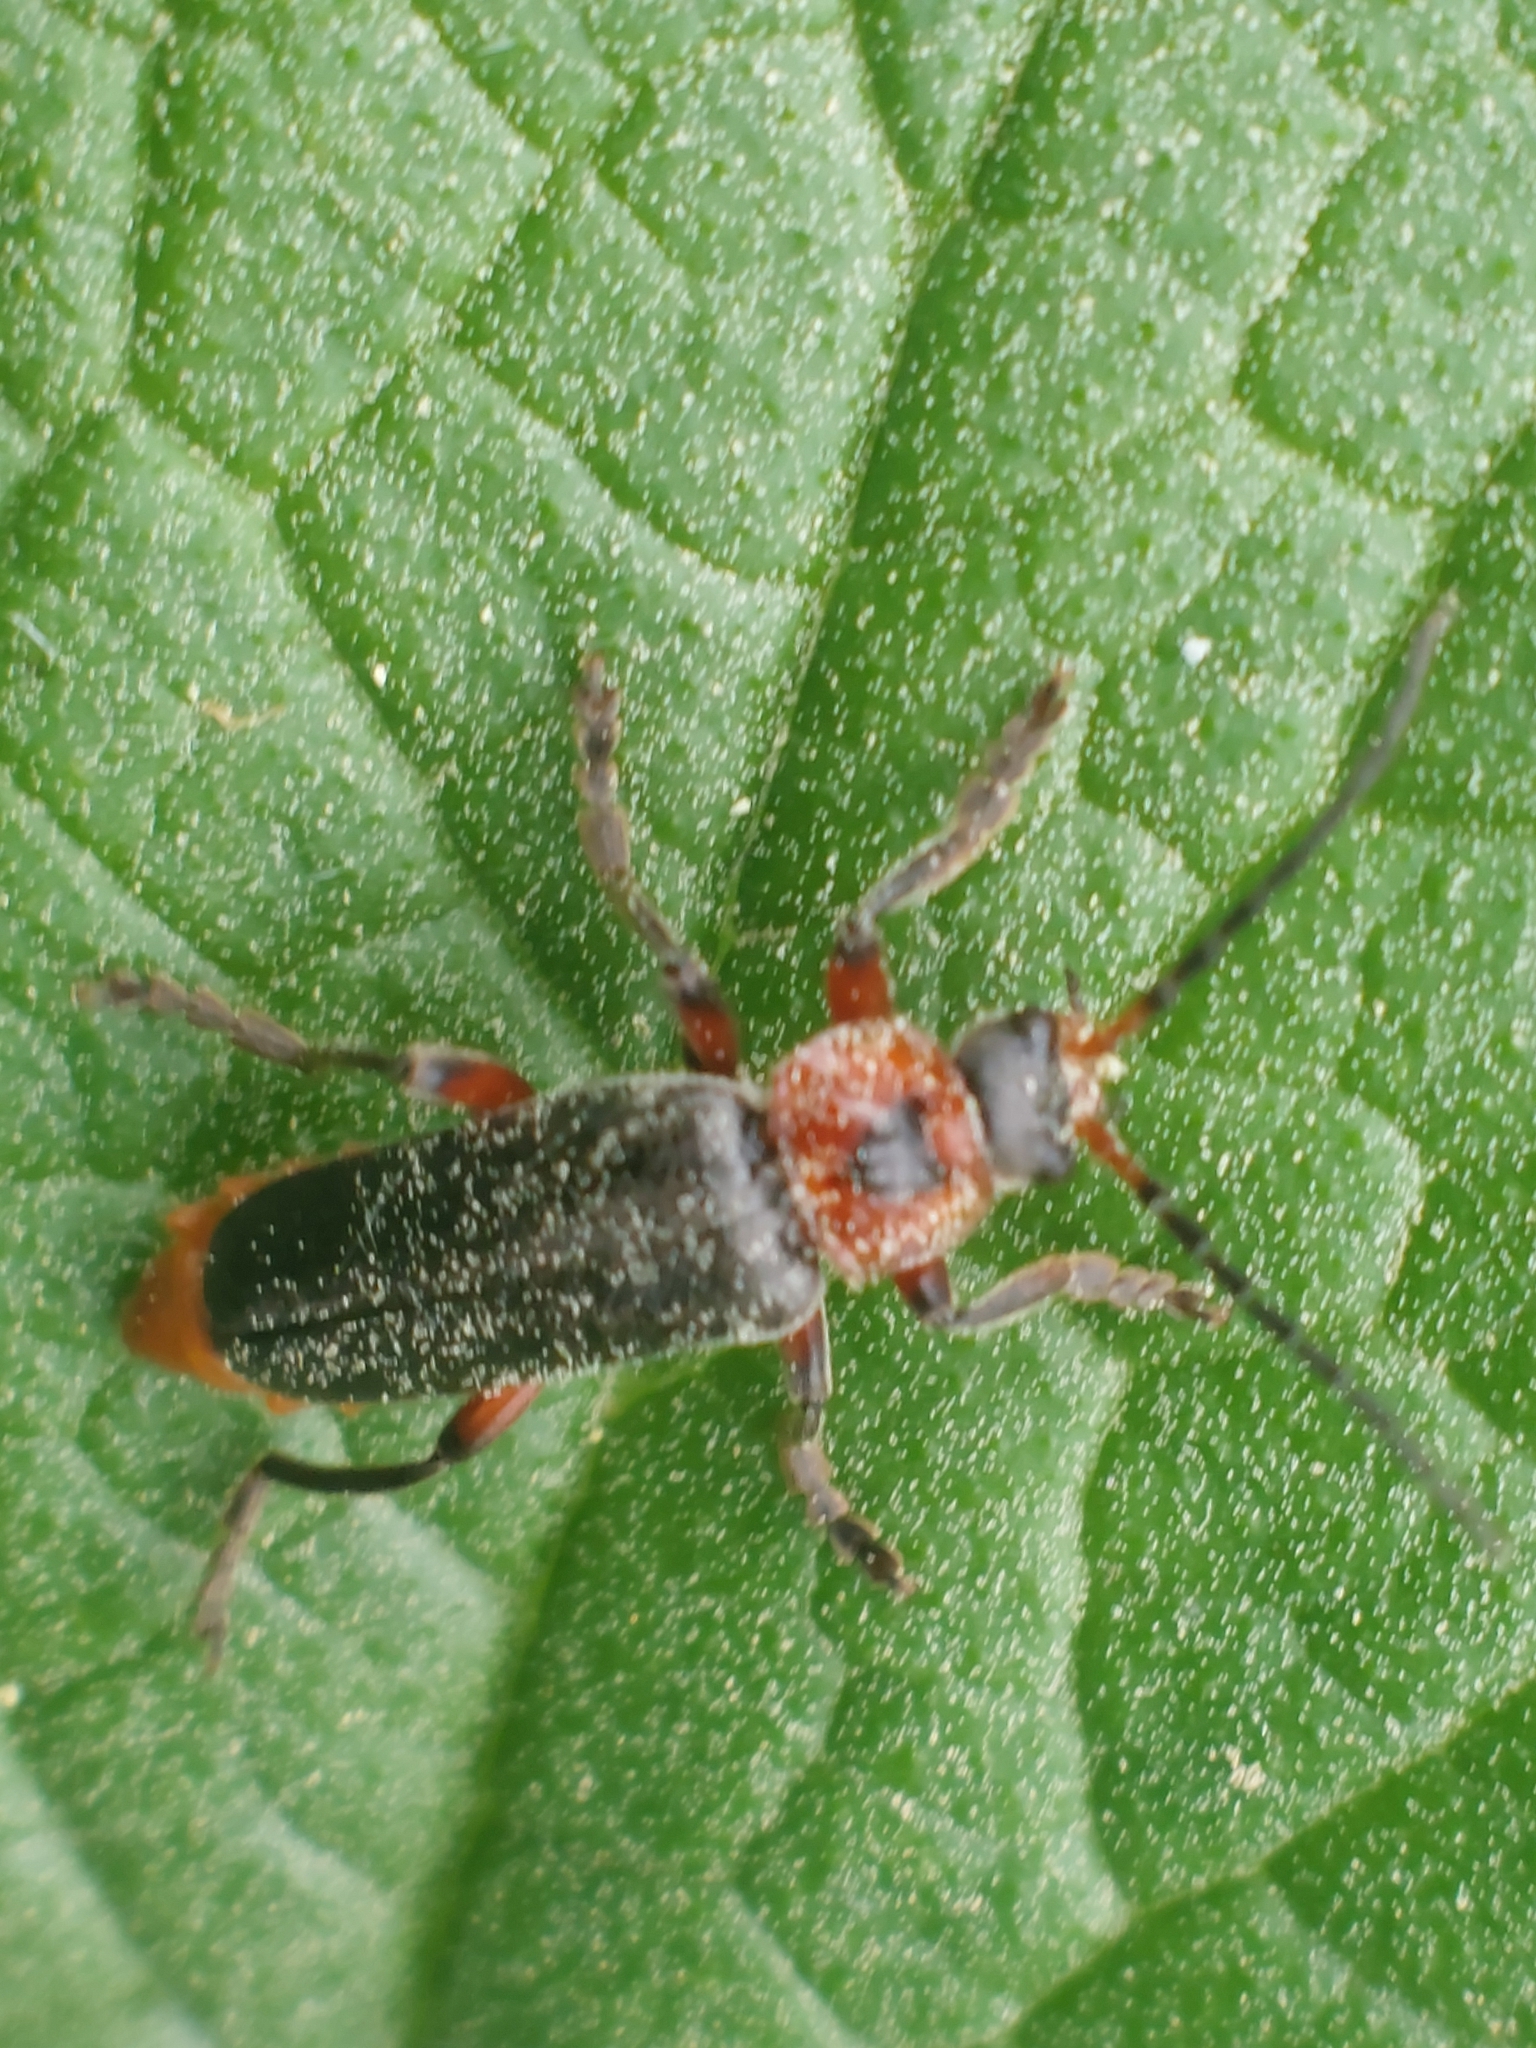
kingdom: Animalia
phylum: Arthropoda
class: Insecta
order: Coleoptera
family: Cantharidae
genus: Cantharis
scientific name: Cantharis rustica
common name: Soldier beetle
